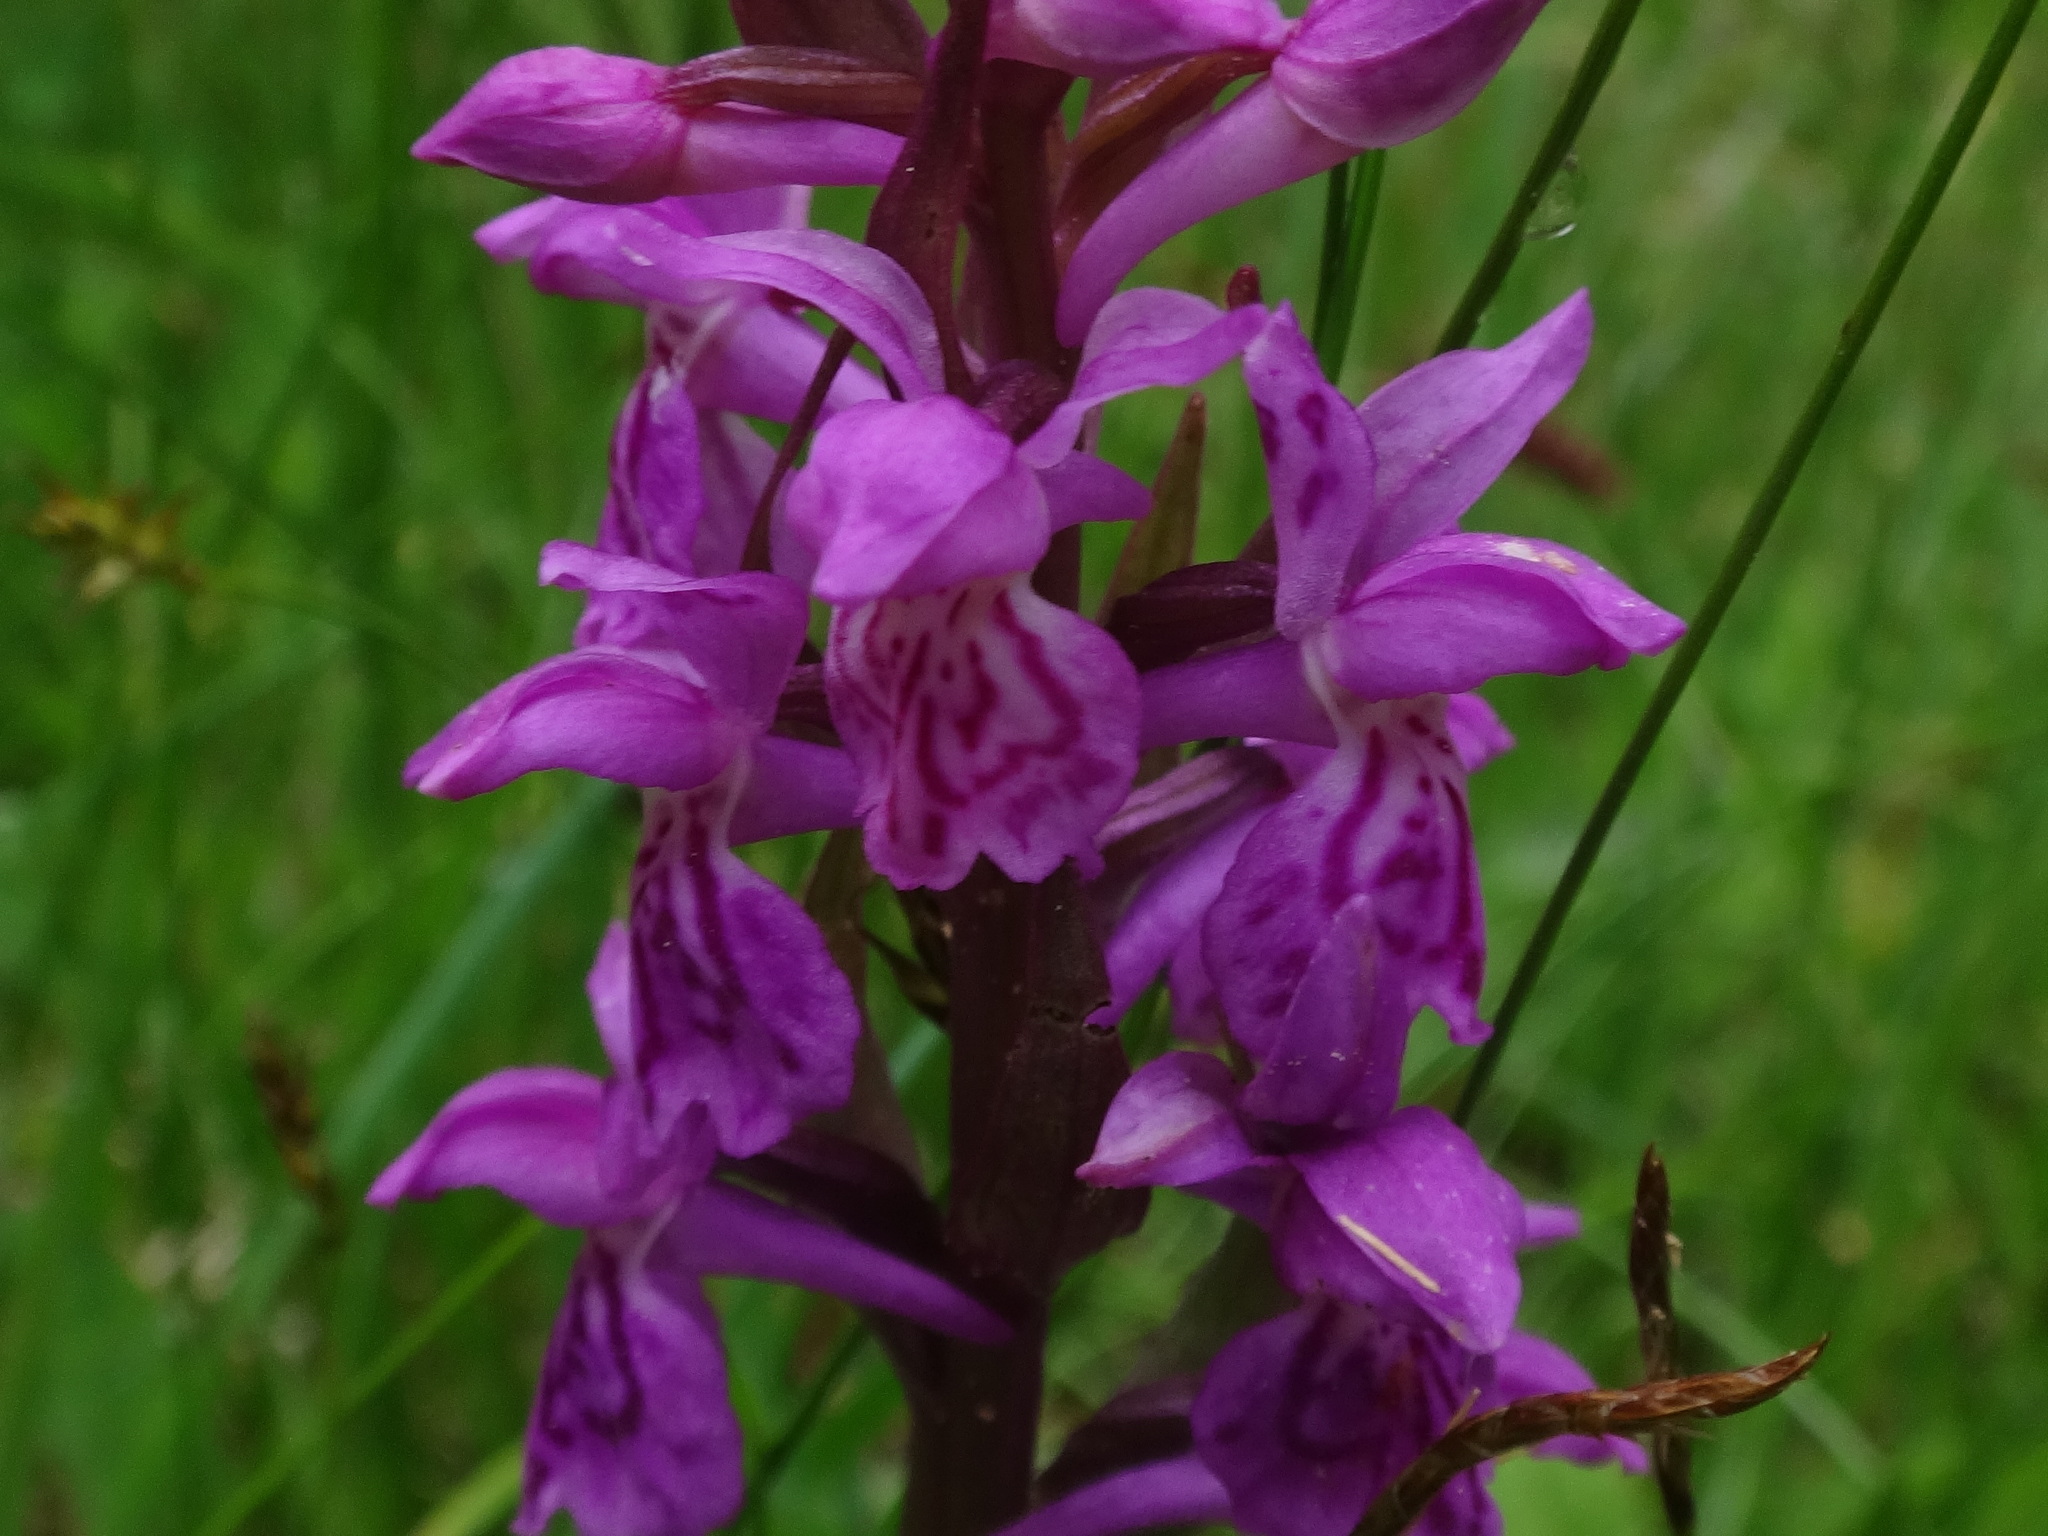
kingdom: Plantae
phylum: Tracheophyta
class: Liliopsida
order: Asparagales
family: Orchidaceae
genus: Dactylorhiza
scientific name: Dactylorhiza majalis
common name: Marsh orchid
